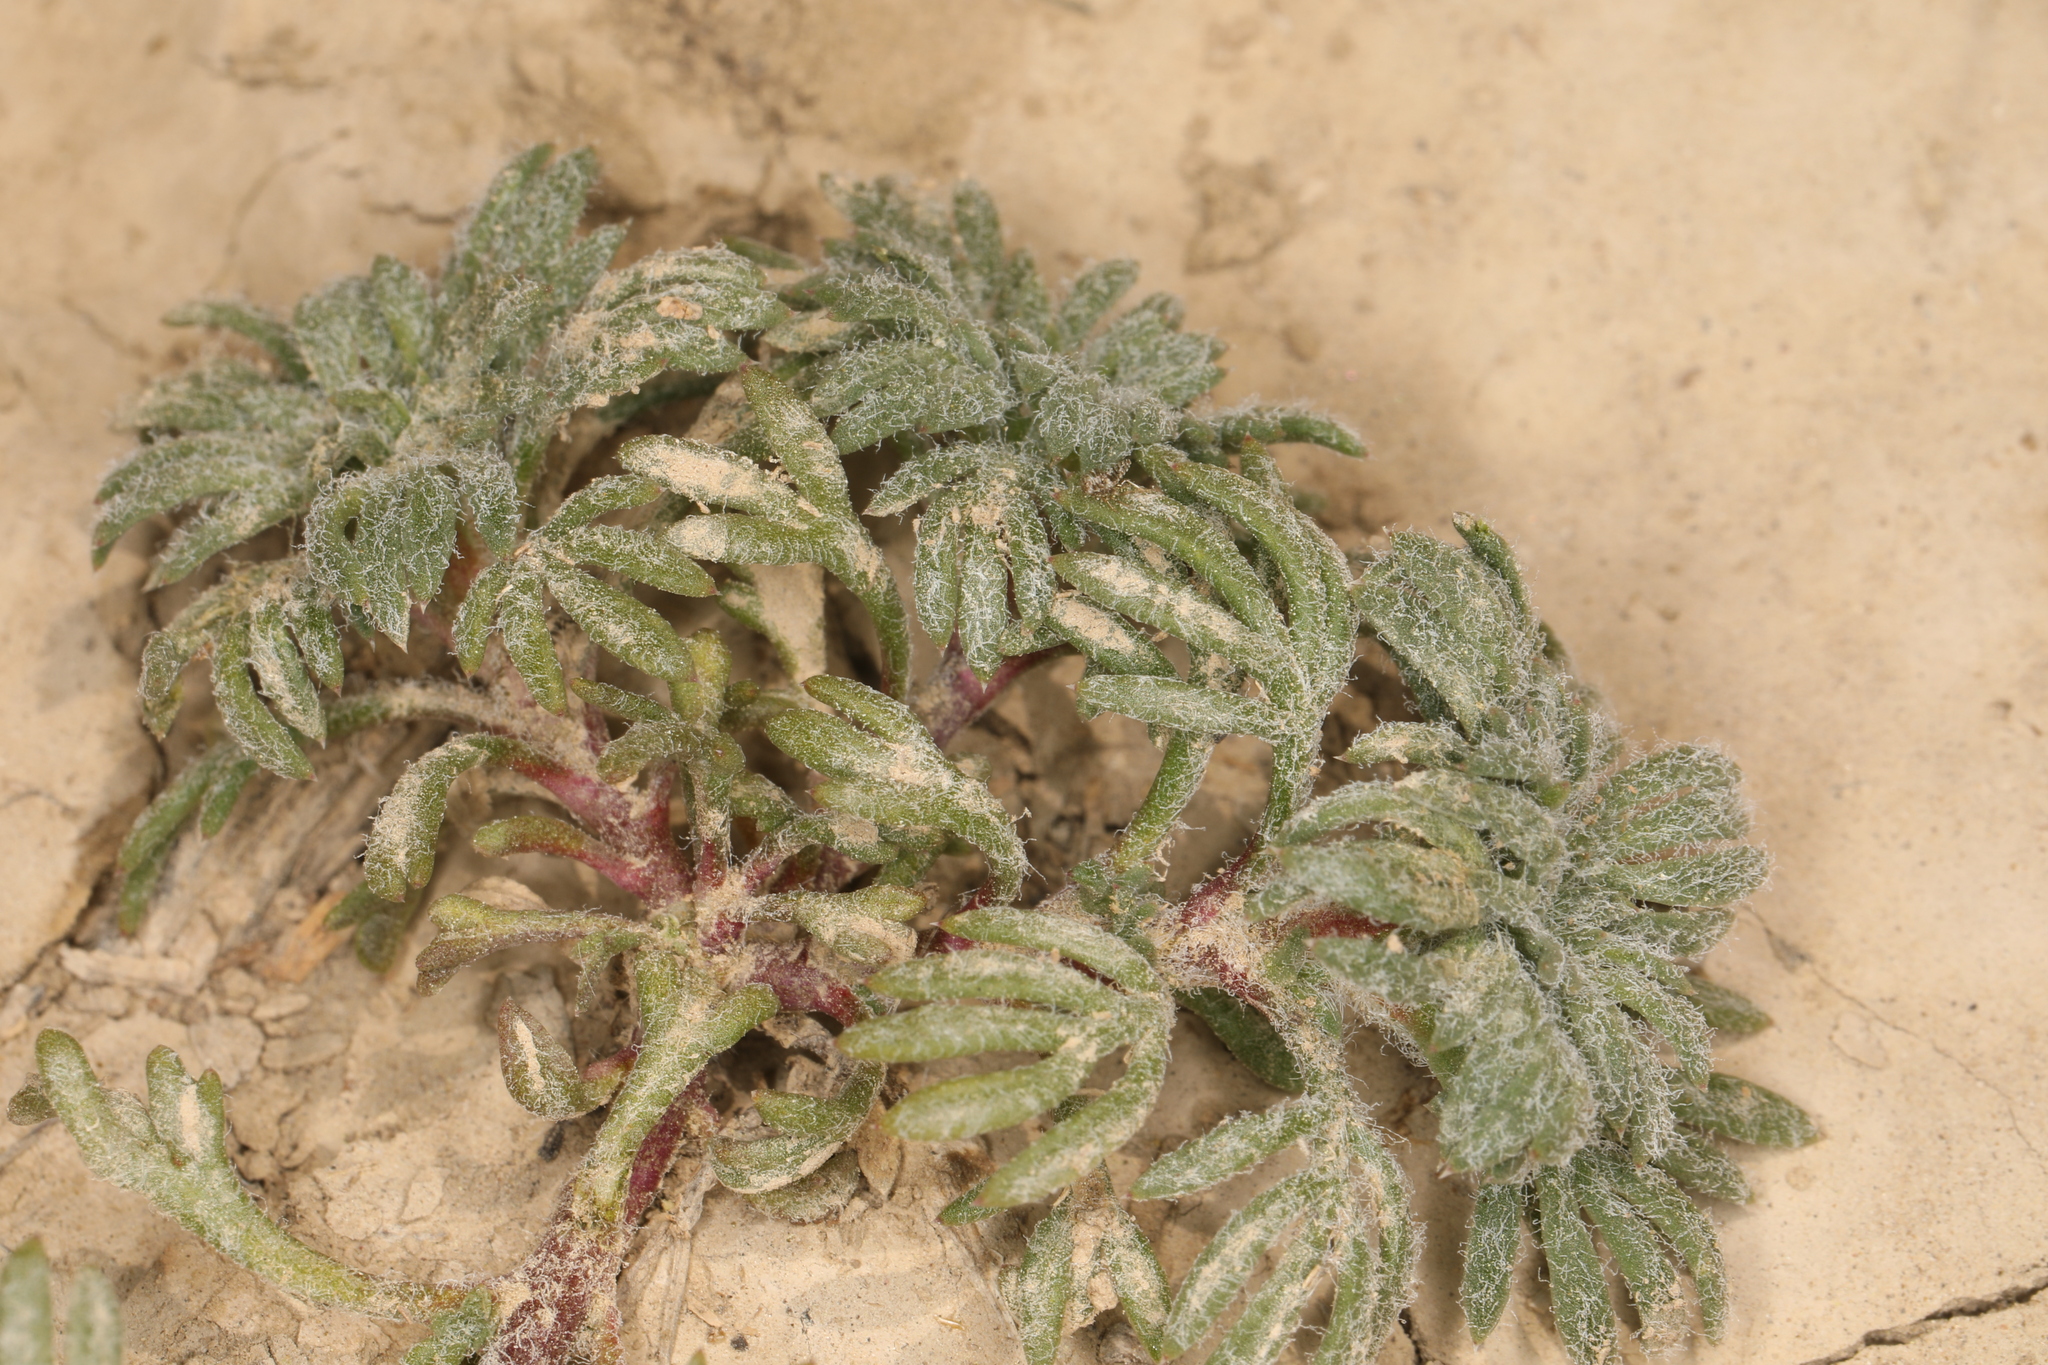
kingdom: Plantae
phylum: Tracheophyta
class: Magnoliopsida
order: Ericales
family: Polemoniaceae
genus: Ipomopsis
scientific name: Ipomopsis congesta
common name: Ball-head gilia
